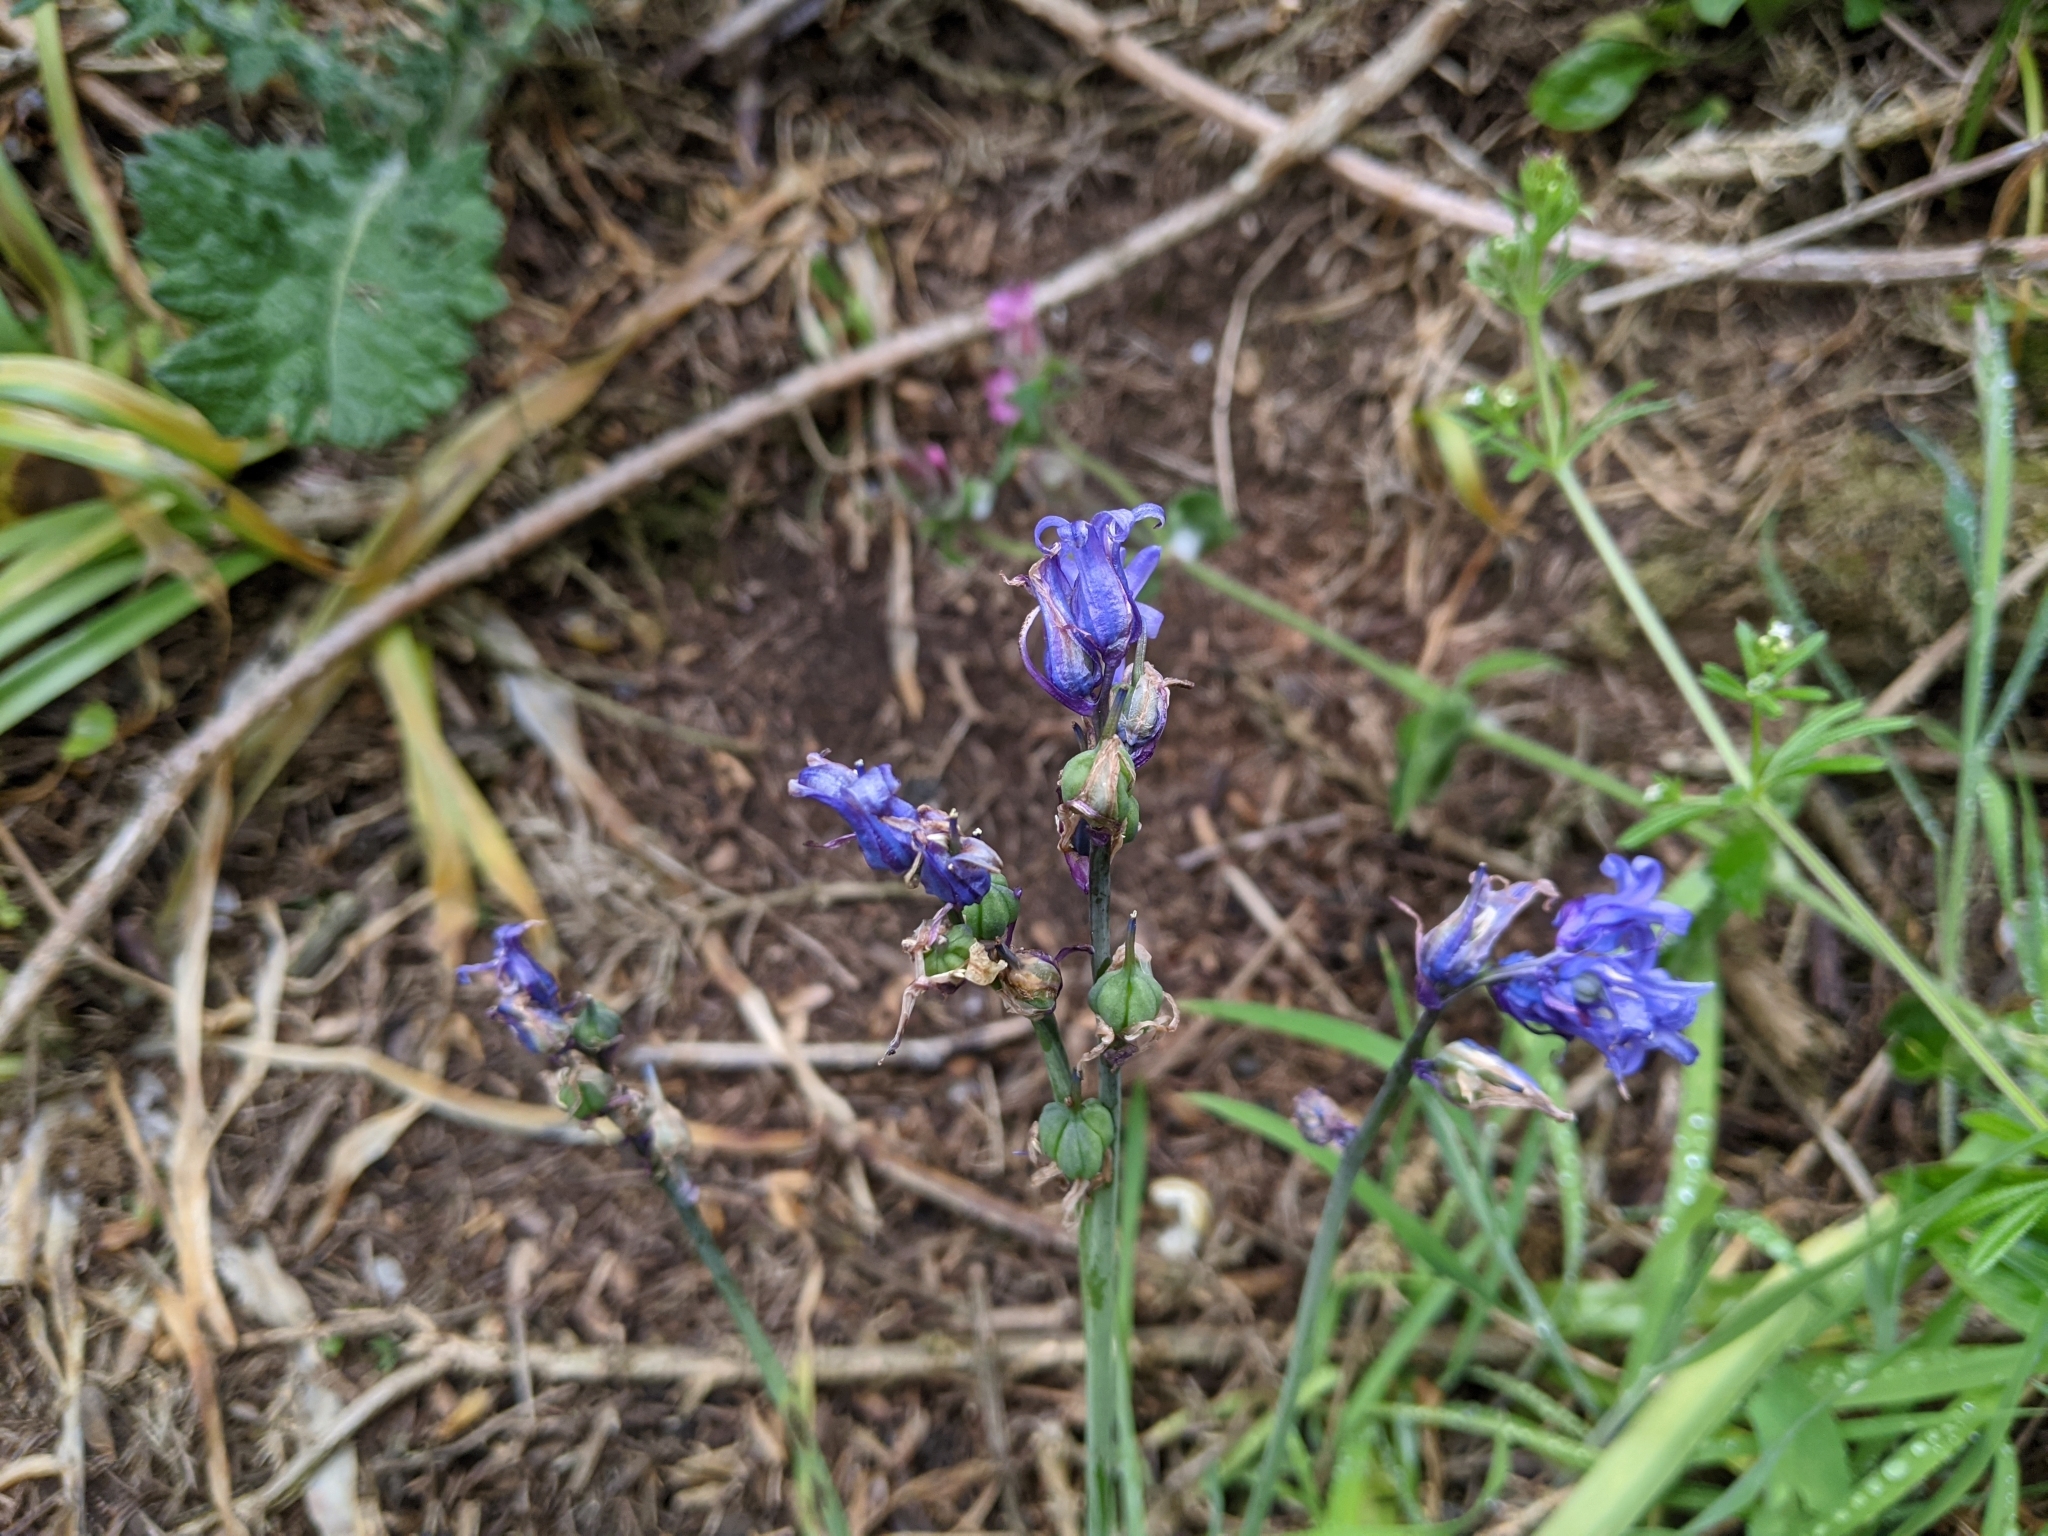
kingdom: Plantae
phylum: Tracheophyta
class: Liliopsida
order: Asparagales
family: Asparagaceae
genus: Hyacinthoides
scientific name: Hyacinthoides non-scripta
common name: Bluebell
